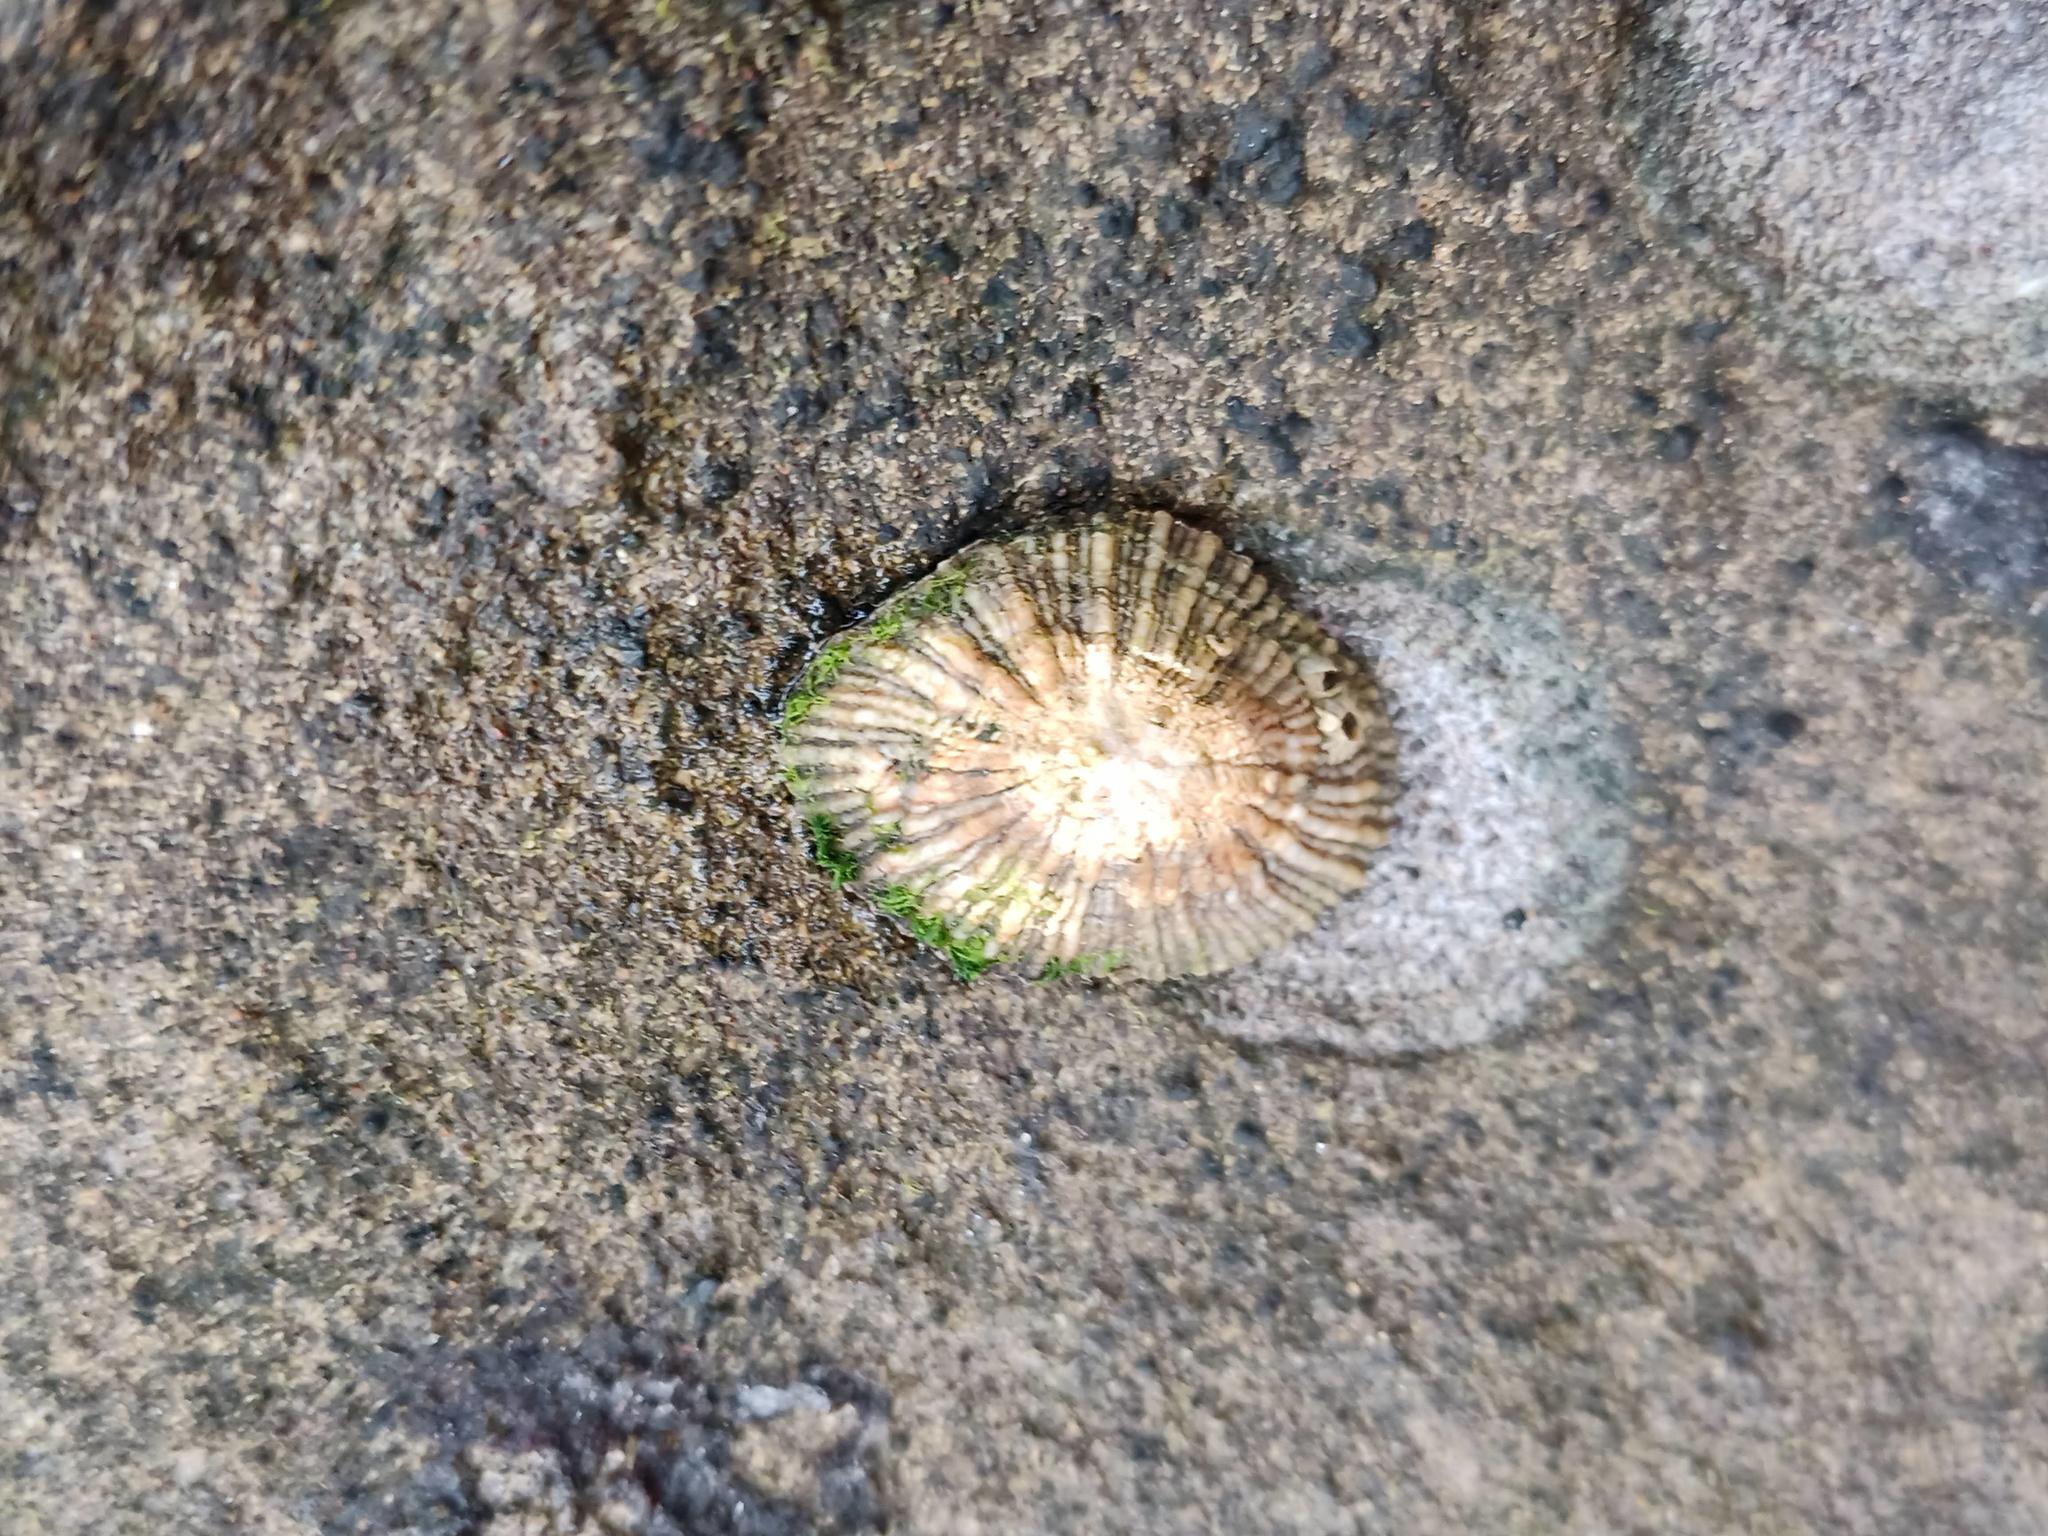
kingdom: Animalia
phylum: Mollusca
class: Gastropoda
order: Siphonariida
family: Siphonariidae
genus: Siphonaria
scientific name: Siphonaria pectinata
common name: Striped false limpet
